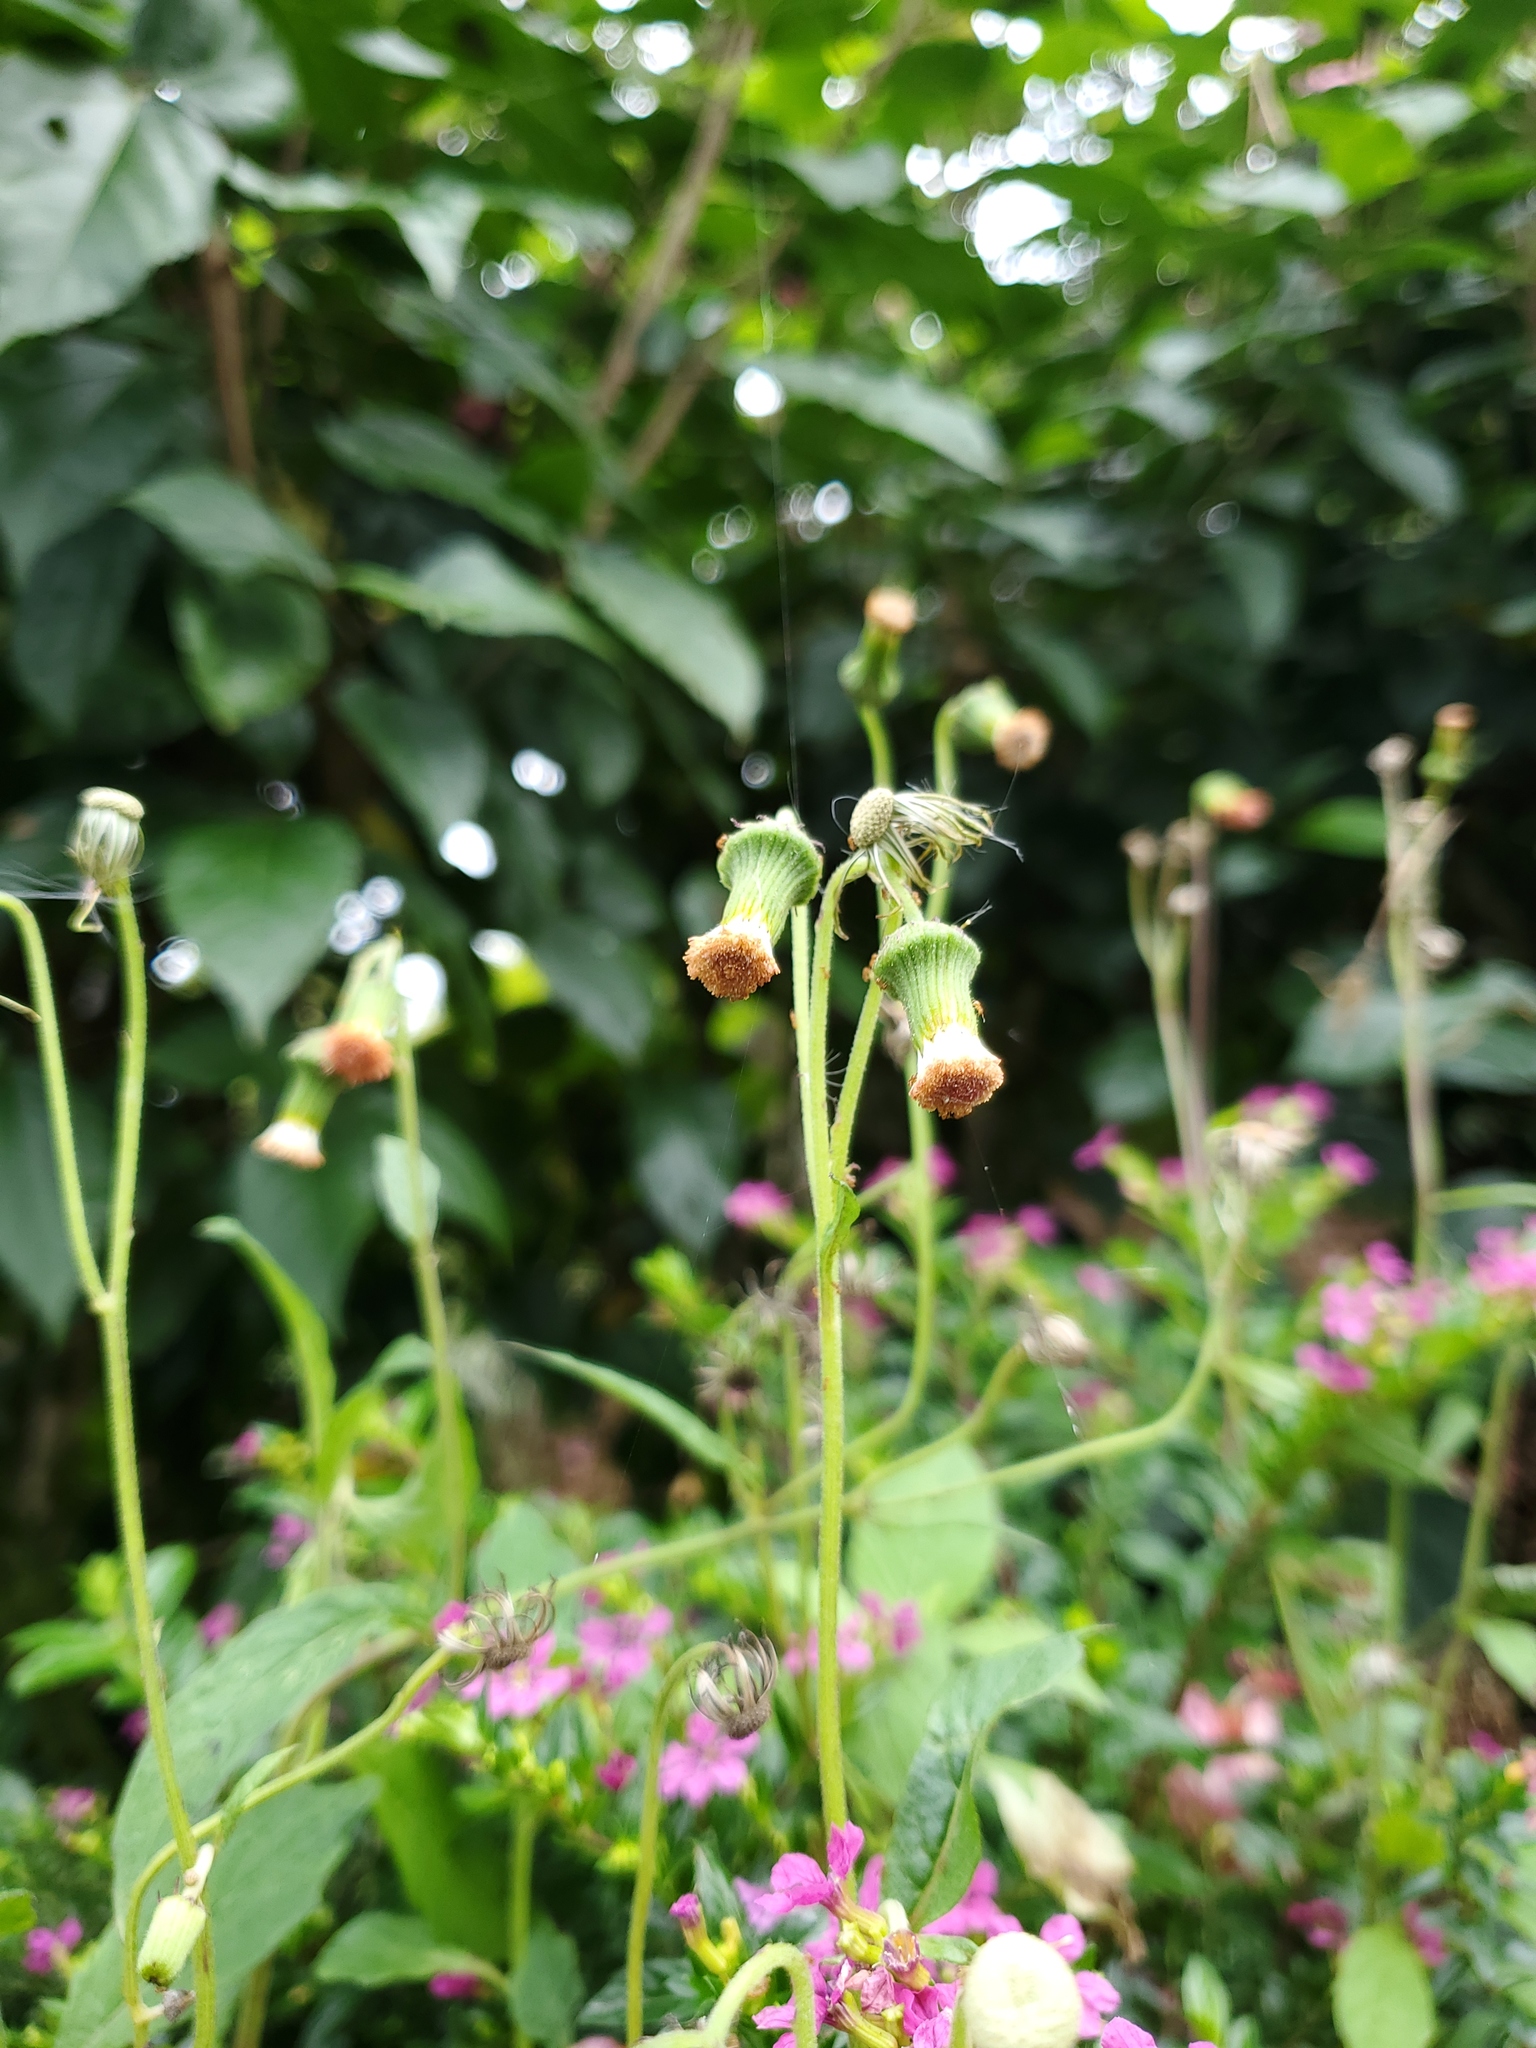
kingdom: Plantae
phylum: Tracheophyta
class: Magnoliopsida
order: Asterales
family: Asteraceae
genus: Crassocephalum
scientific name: Crassocephalum crepidioides
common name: Redflower ragleaf
